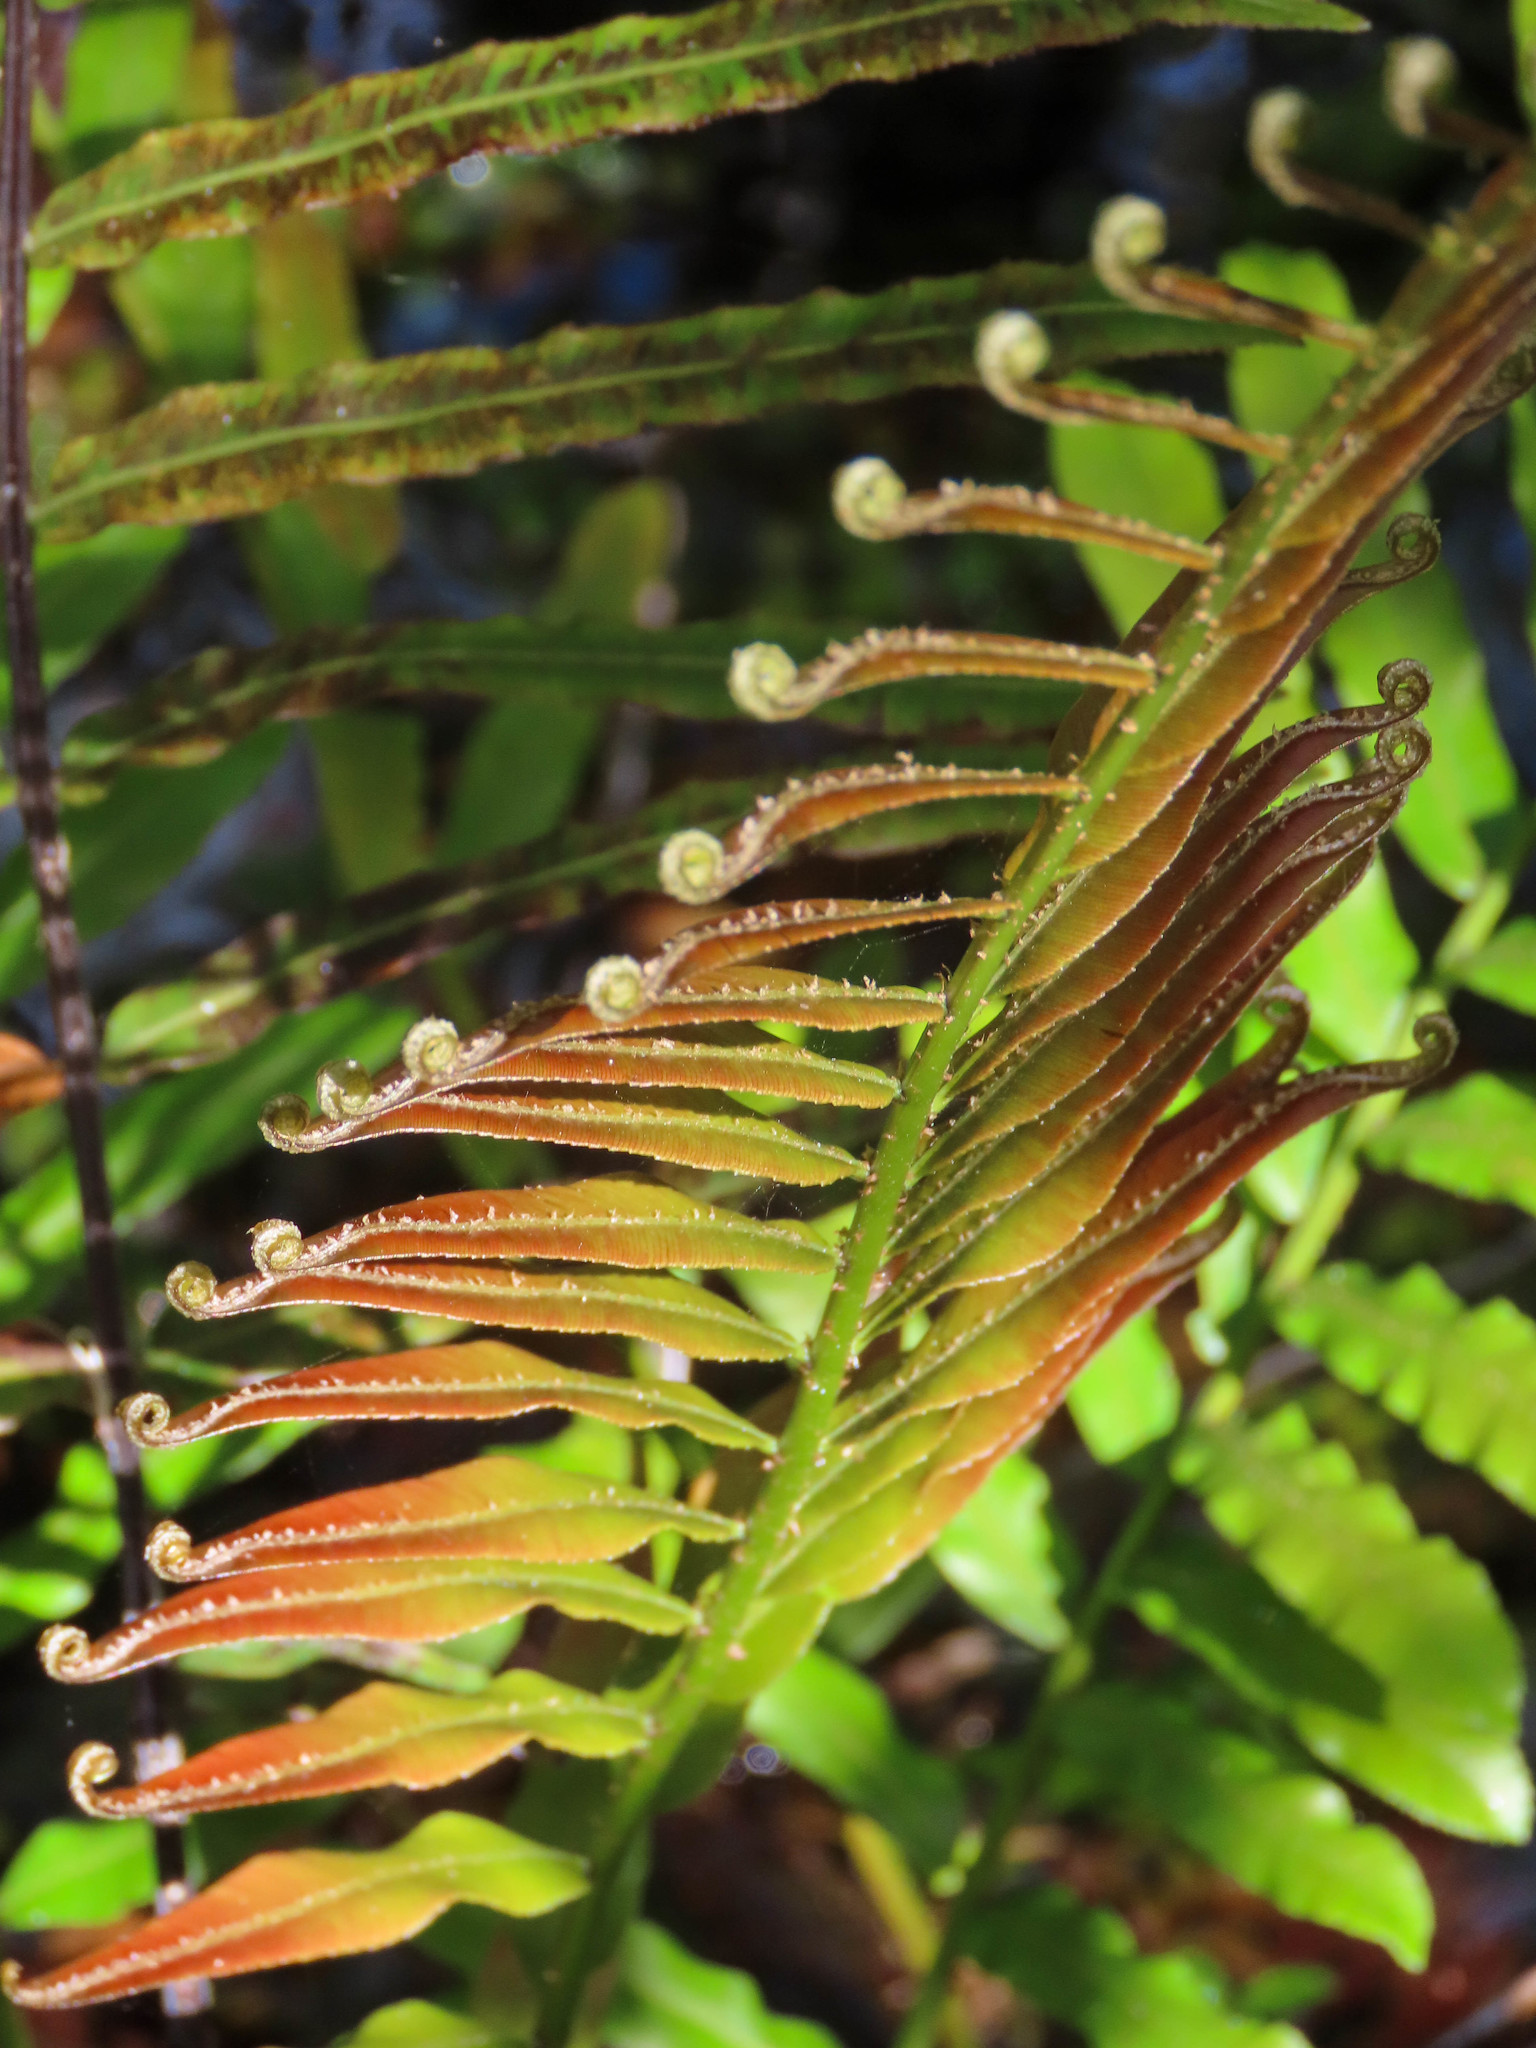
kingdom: Plantae
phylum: Tracheophyta
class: Polypodiopsida
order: Polypodiales
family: Blechnaceae
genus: Telmatoblechnum
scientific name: Telmatoblechnum serrulatum
